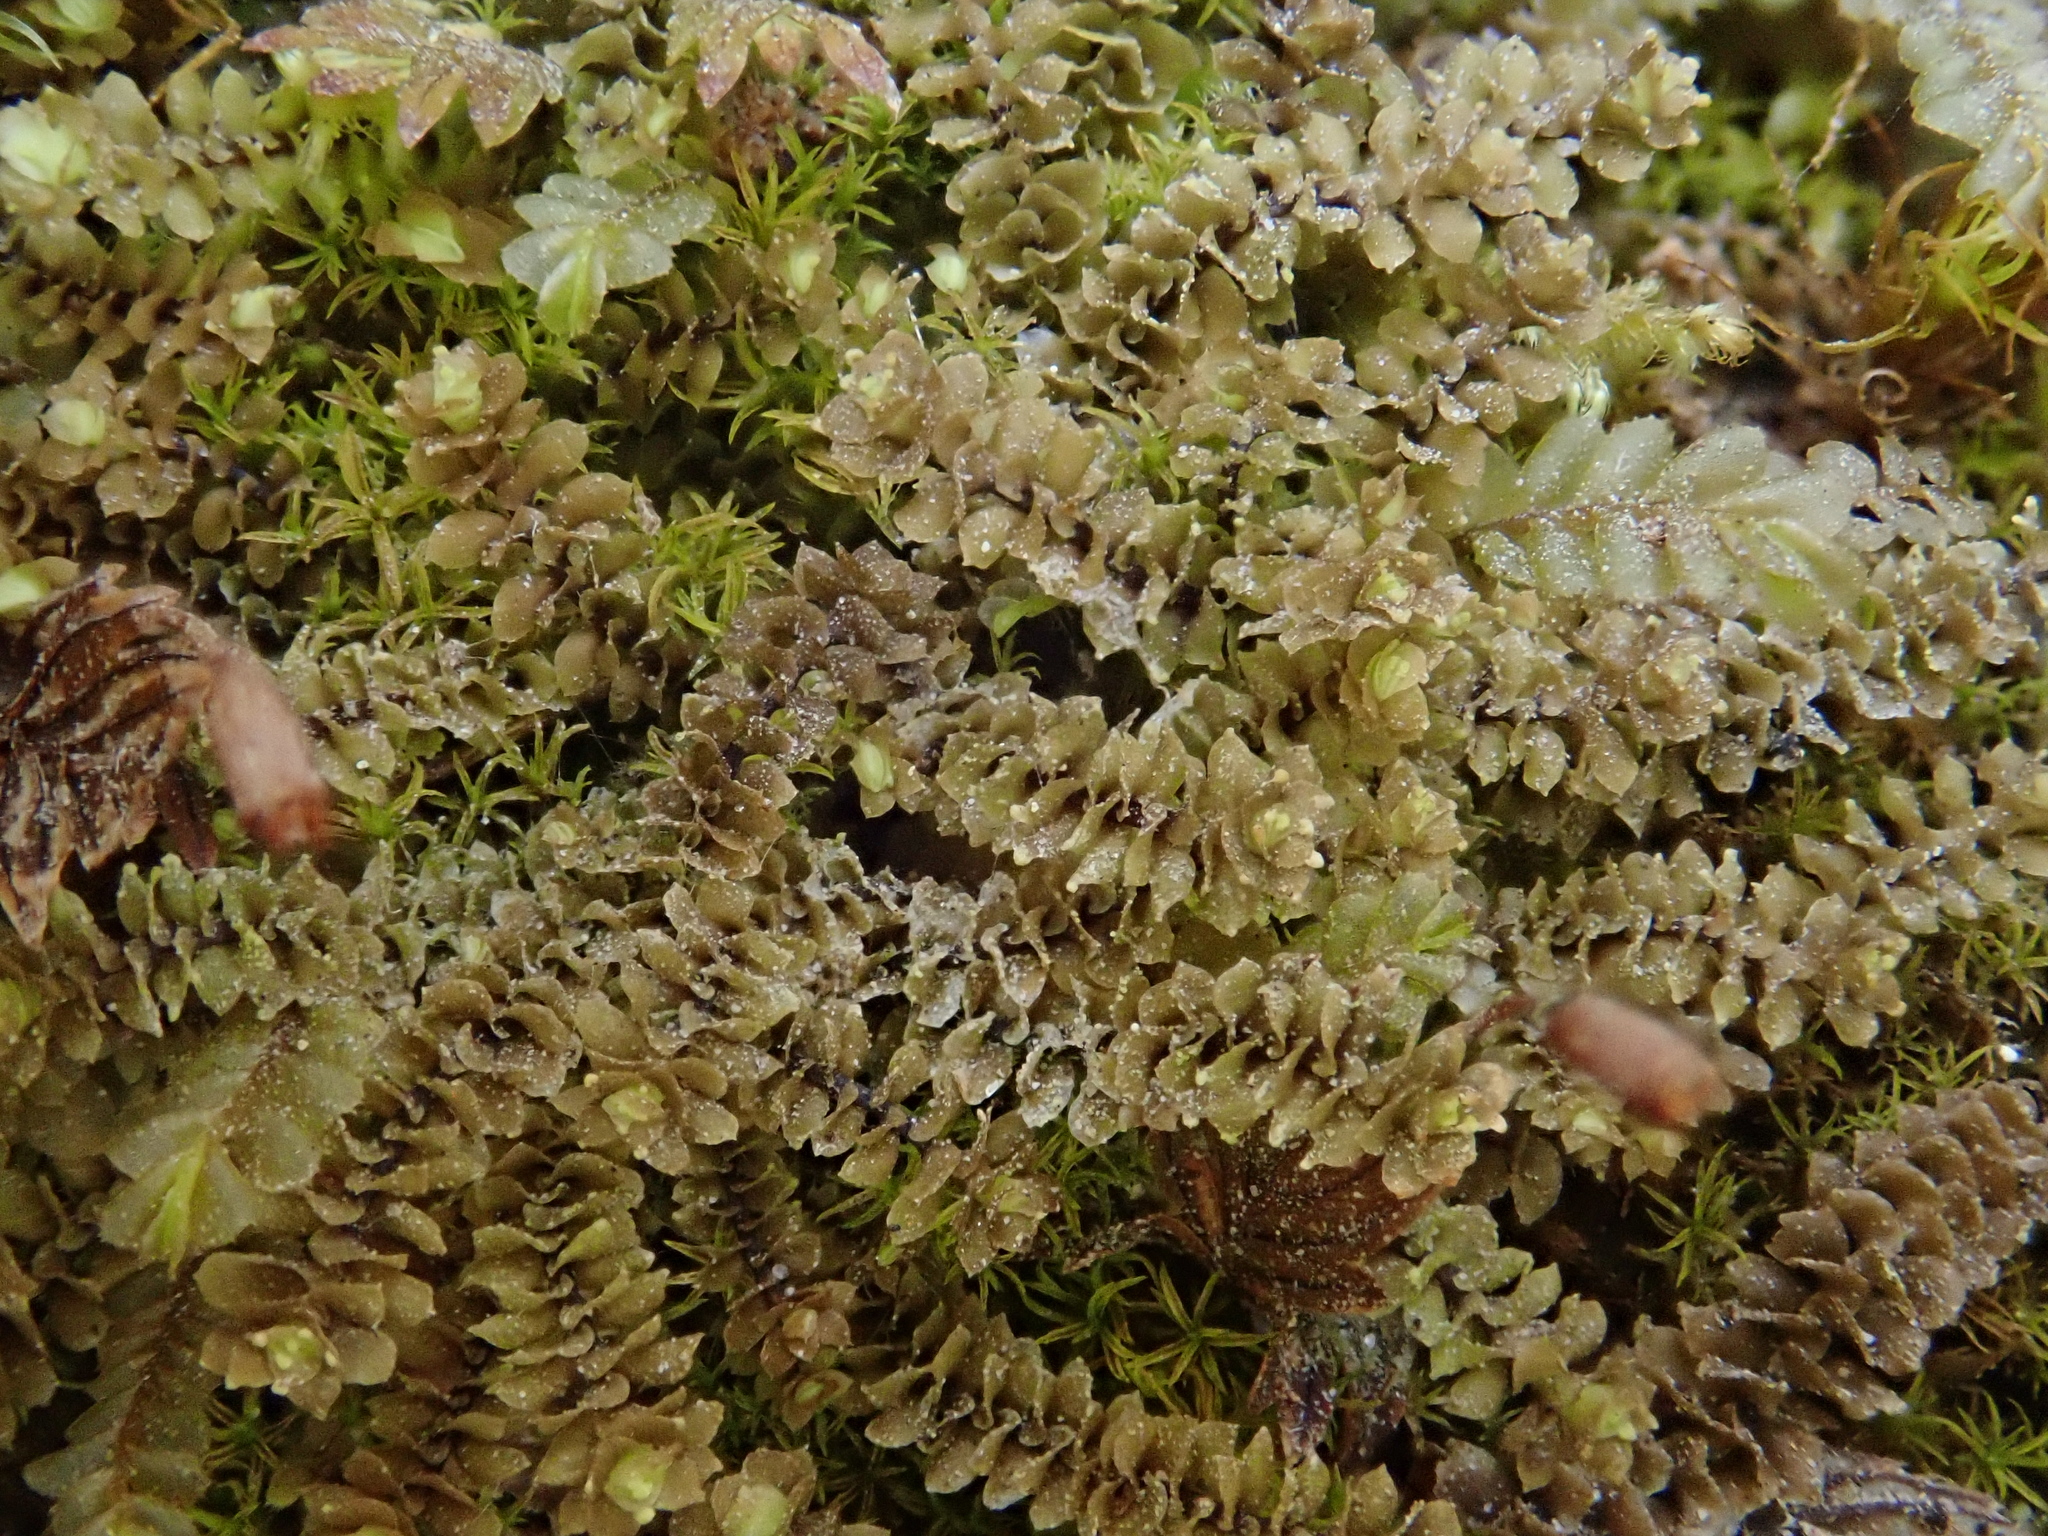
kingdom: Plantae
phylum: Marchantiophyta
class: Jungermanniopsida
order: Jungermanniales
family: Scapaniaceae
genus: Scapania
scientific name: Scapania aequiloba
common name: Lesser rough earwort
